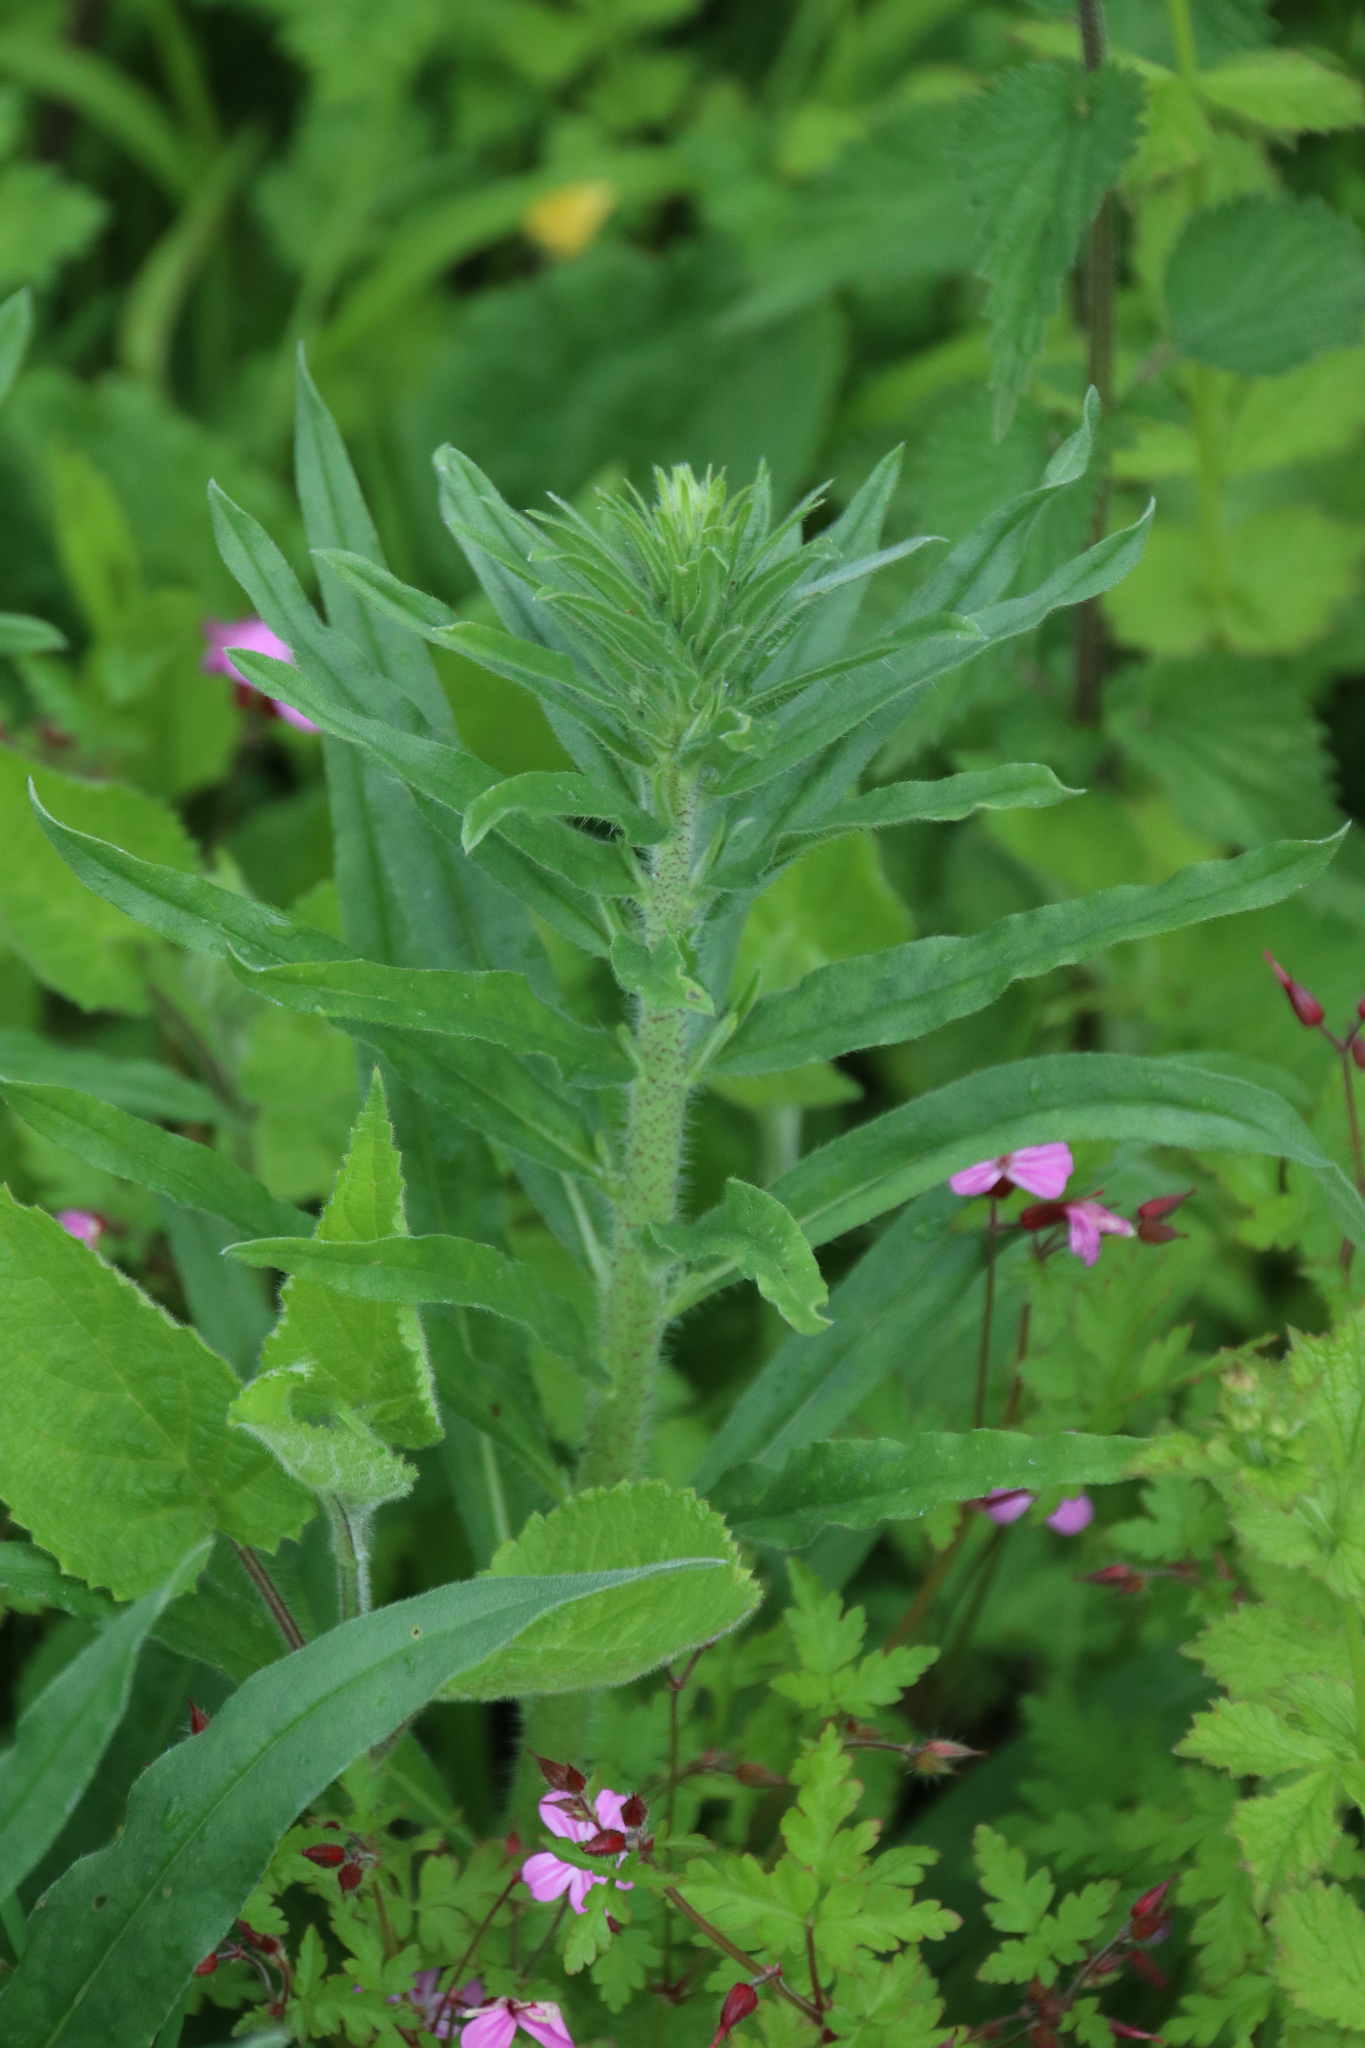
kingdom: Plantae
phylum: Tracheophyta
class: Magnoliopsida
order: Boraginales
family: Boraginaceae
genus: Echium
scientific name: Echium vulgare
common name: Common viper's bugloss
